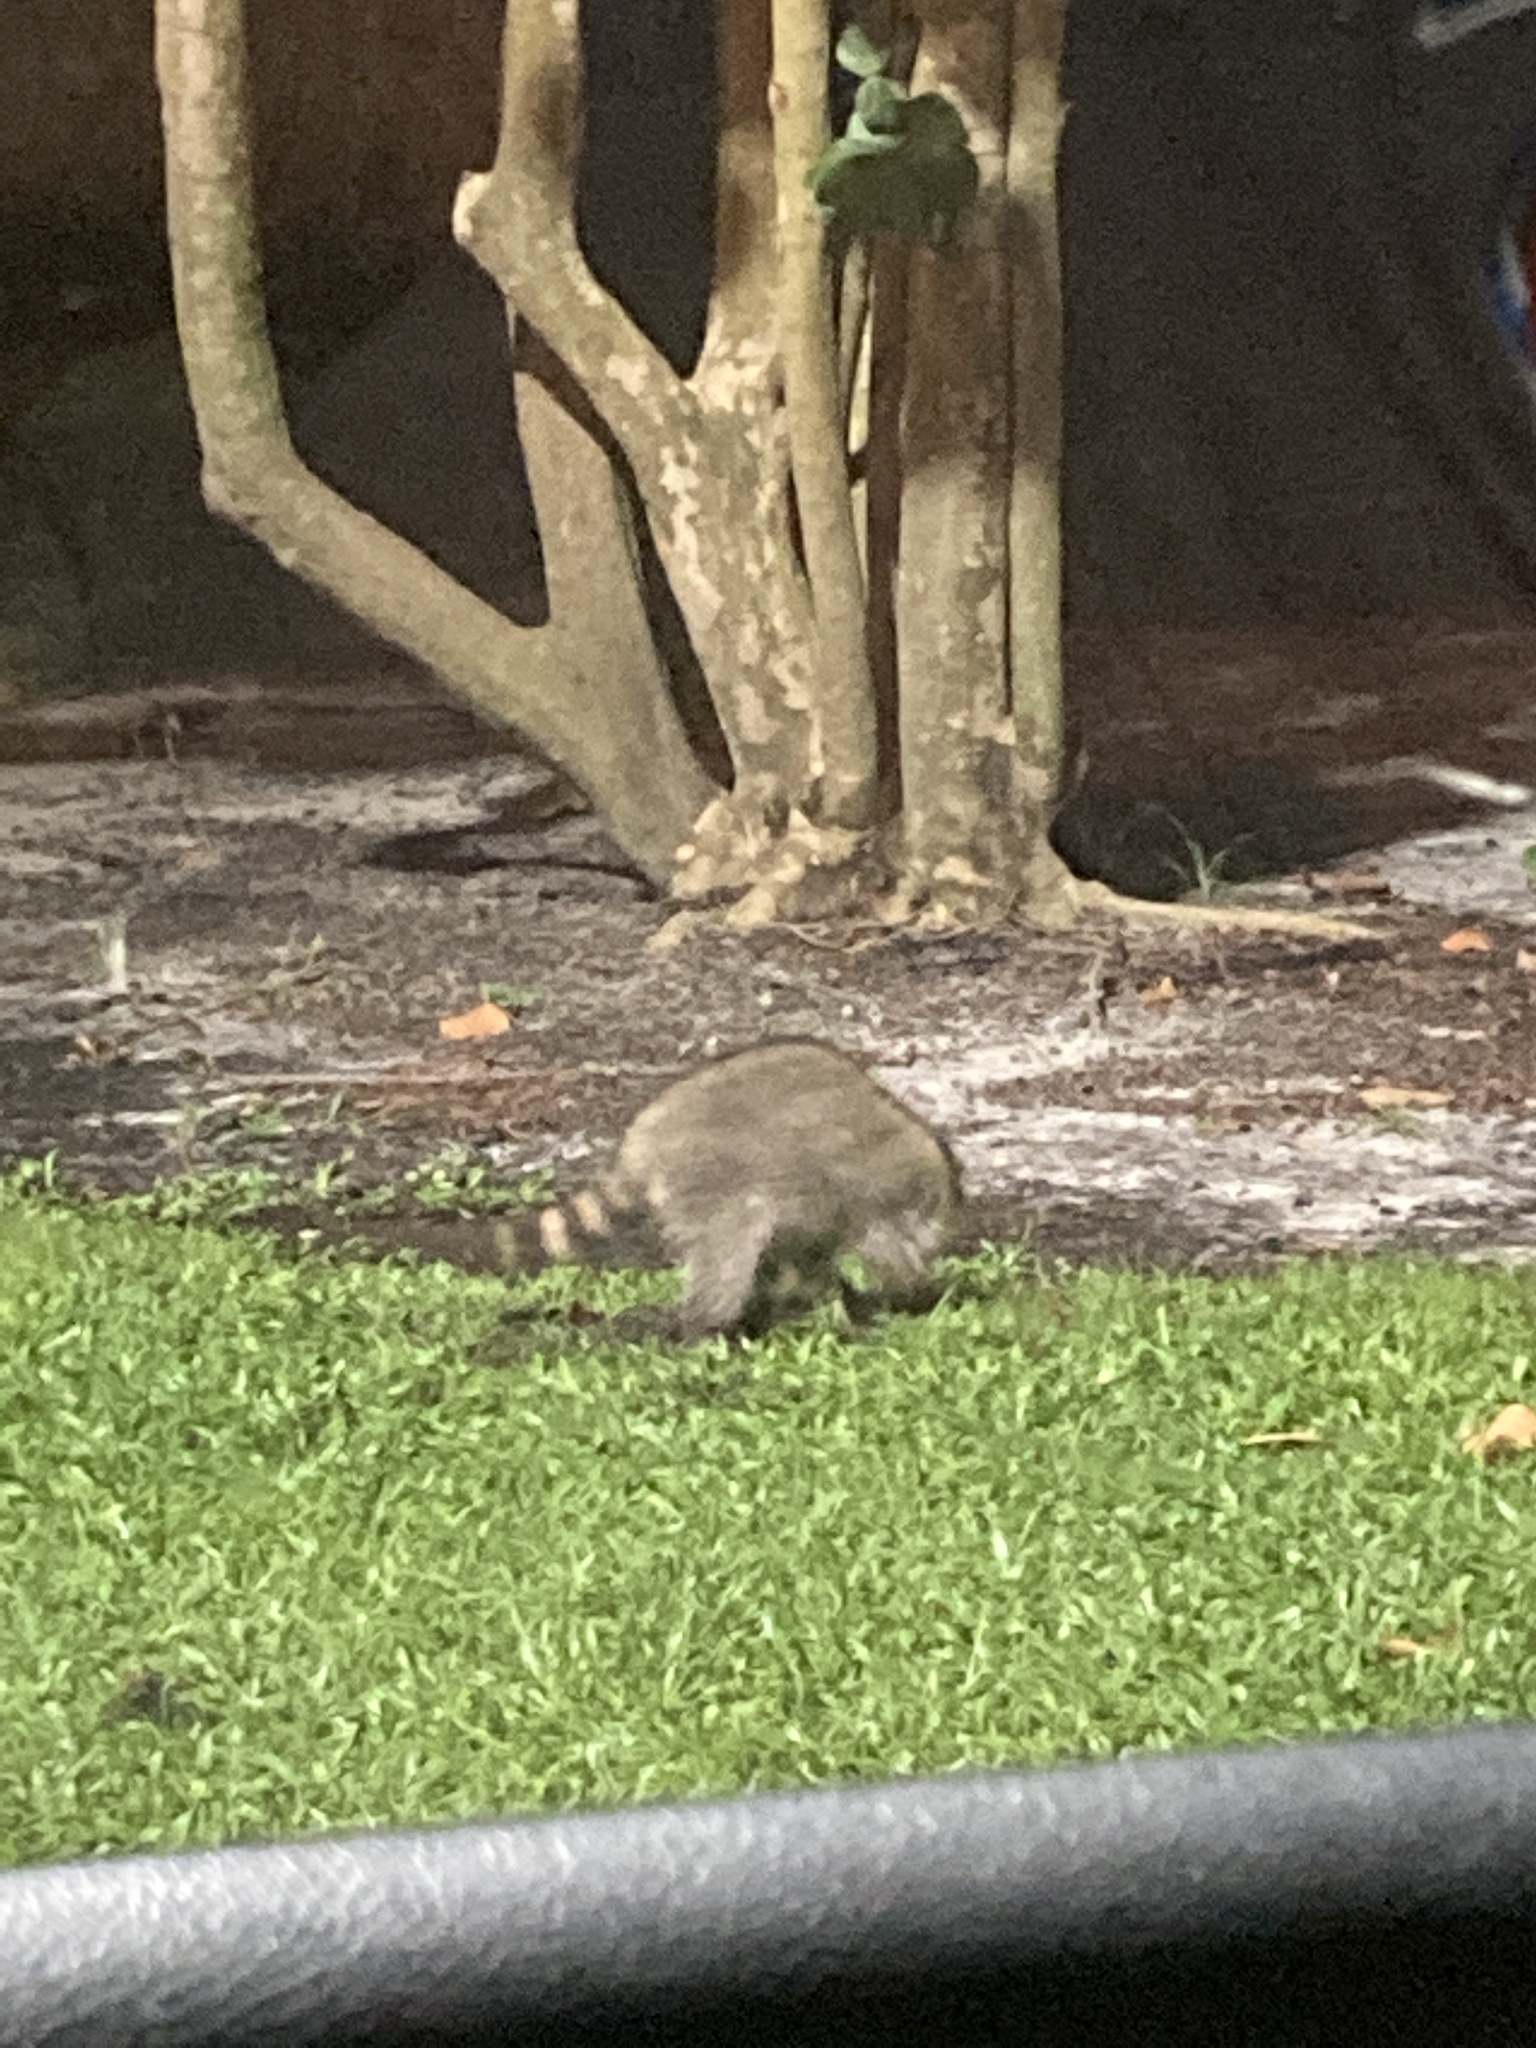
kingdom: Animalia
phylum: Chordata
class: Mammalia
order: Carnivora
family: Procyonidae
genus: Procyon
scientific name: Procyon lotor
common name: Raccoon
